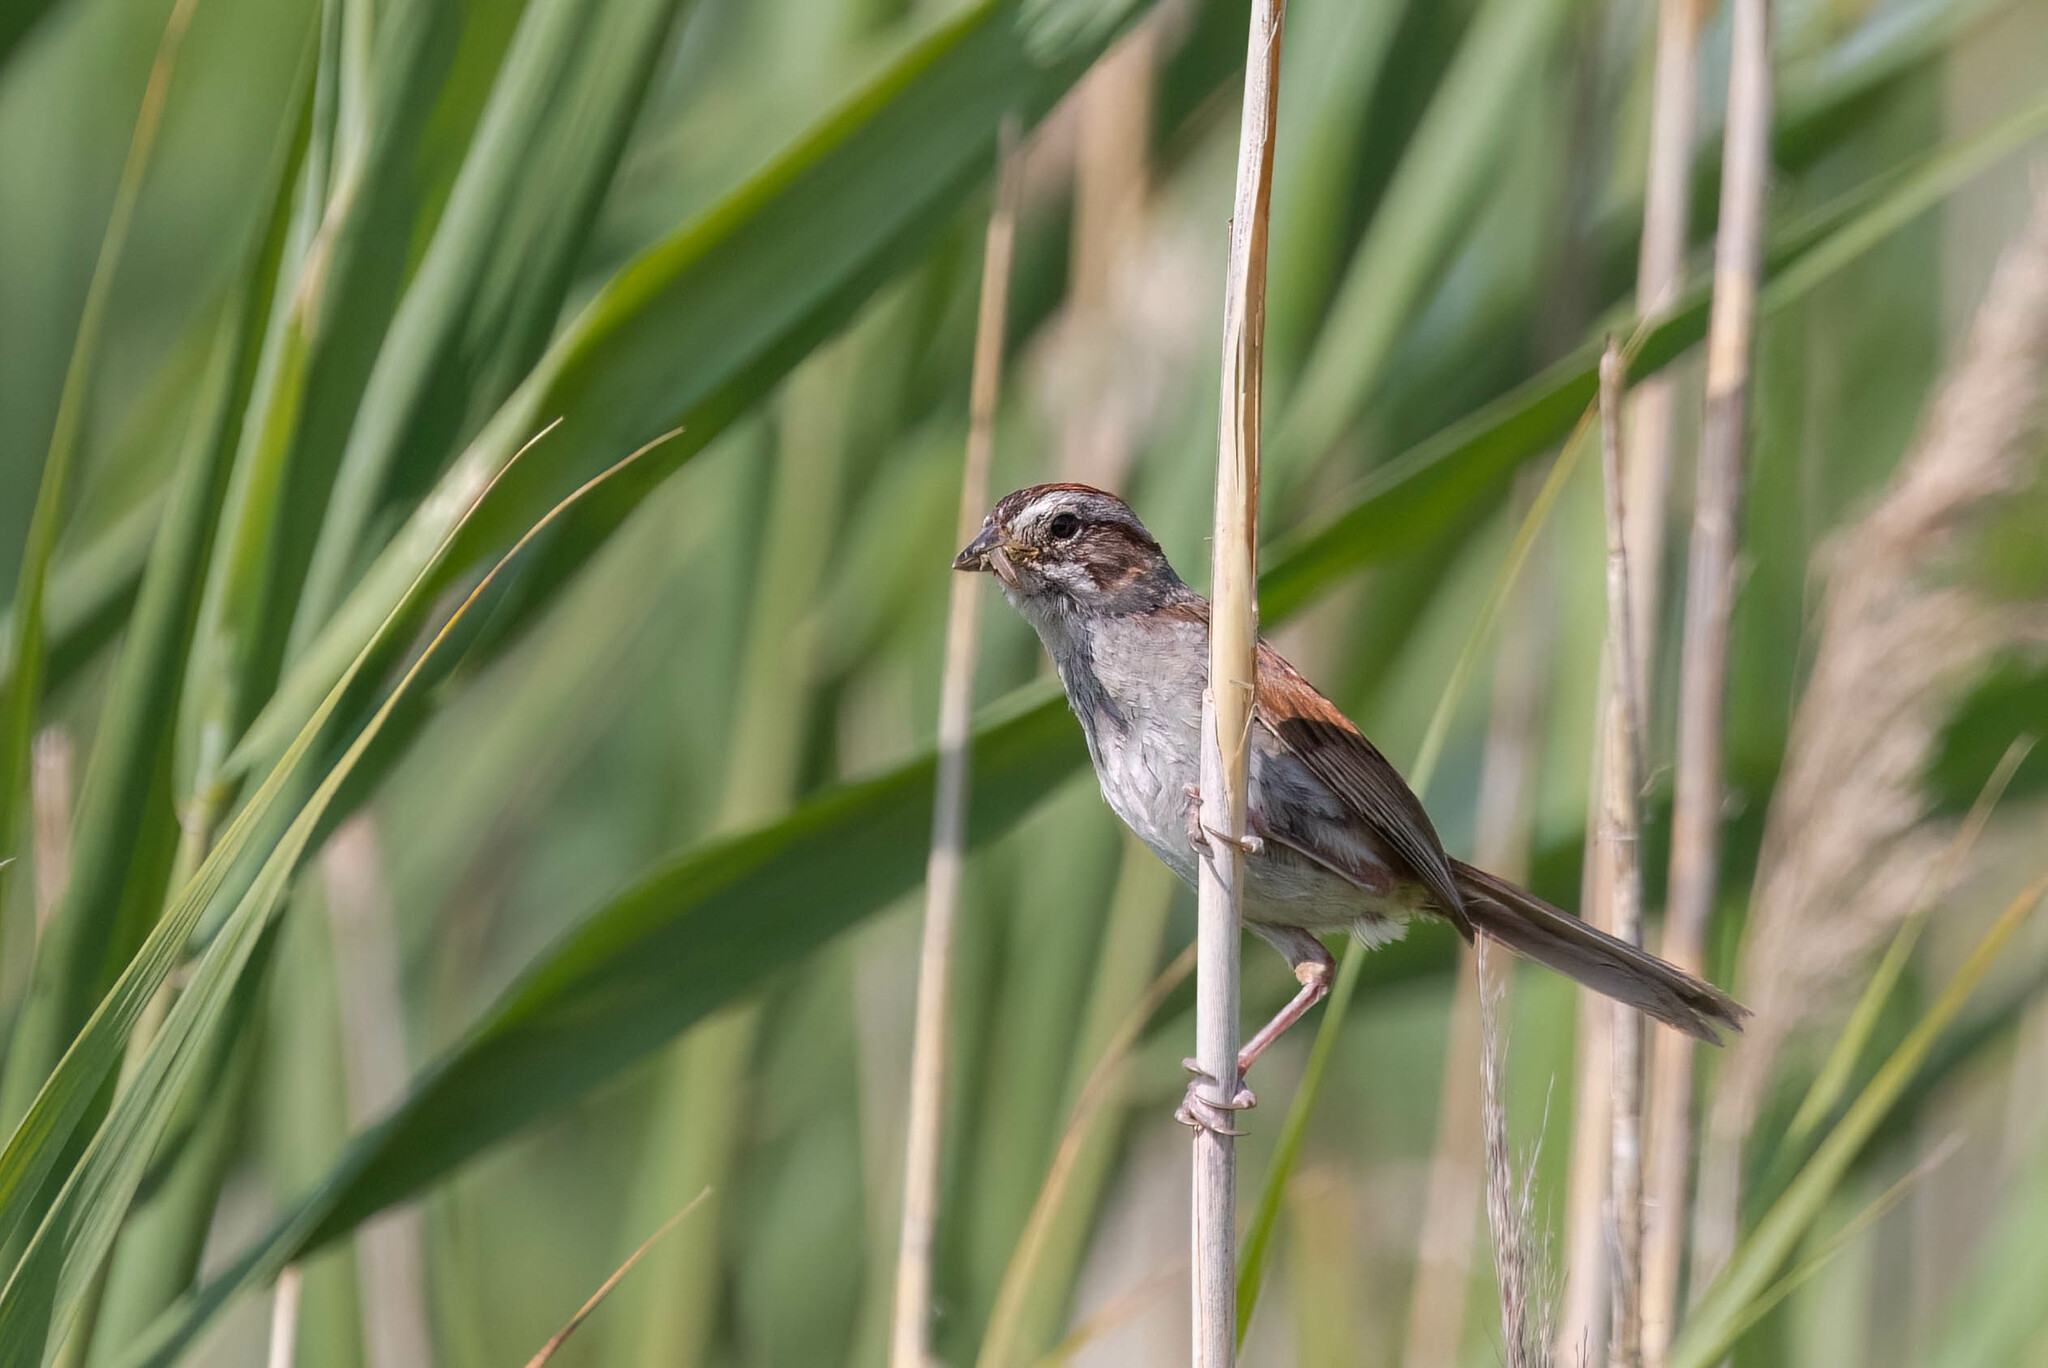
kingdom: Animalia
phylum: Chordata
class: Aves
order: Passeriformes
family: Passerellidae
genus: Melospiza
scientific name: Melospiza georgiana
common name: Swamp sparrow
